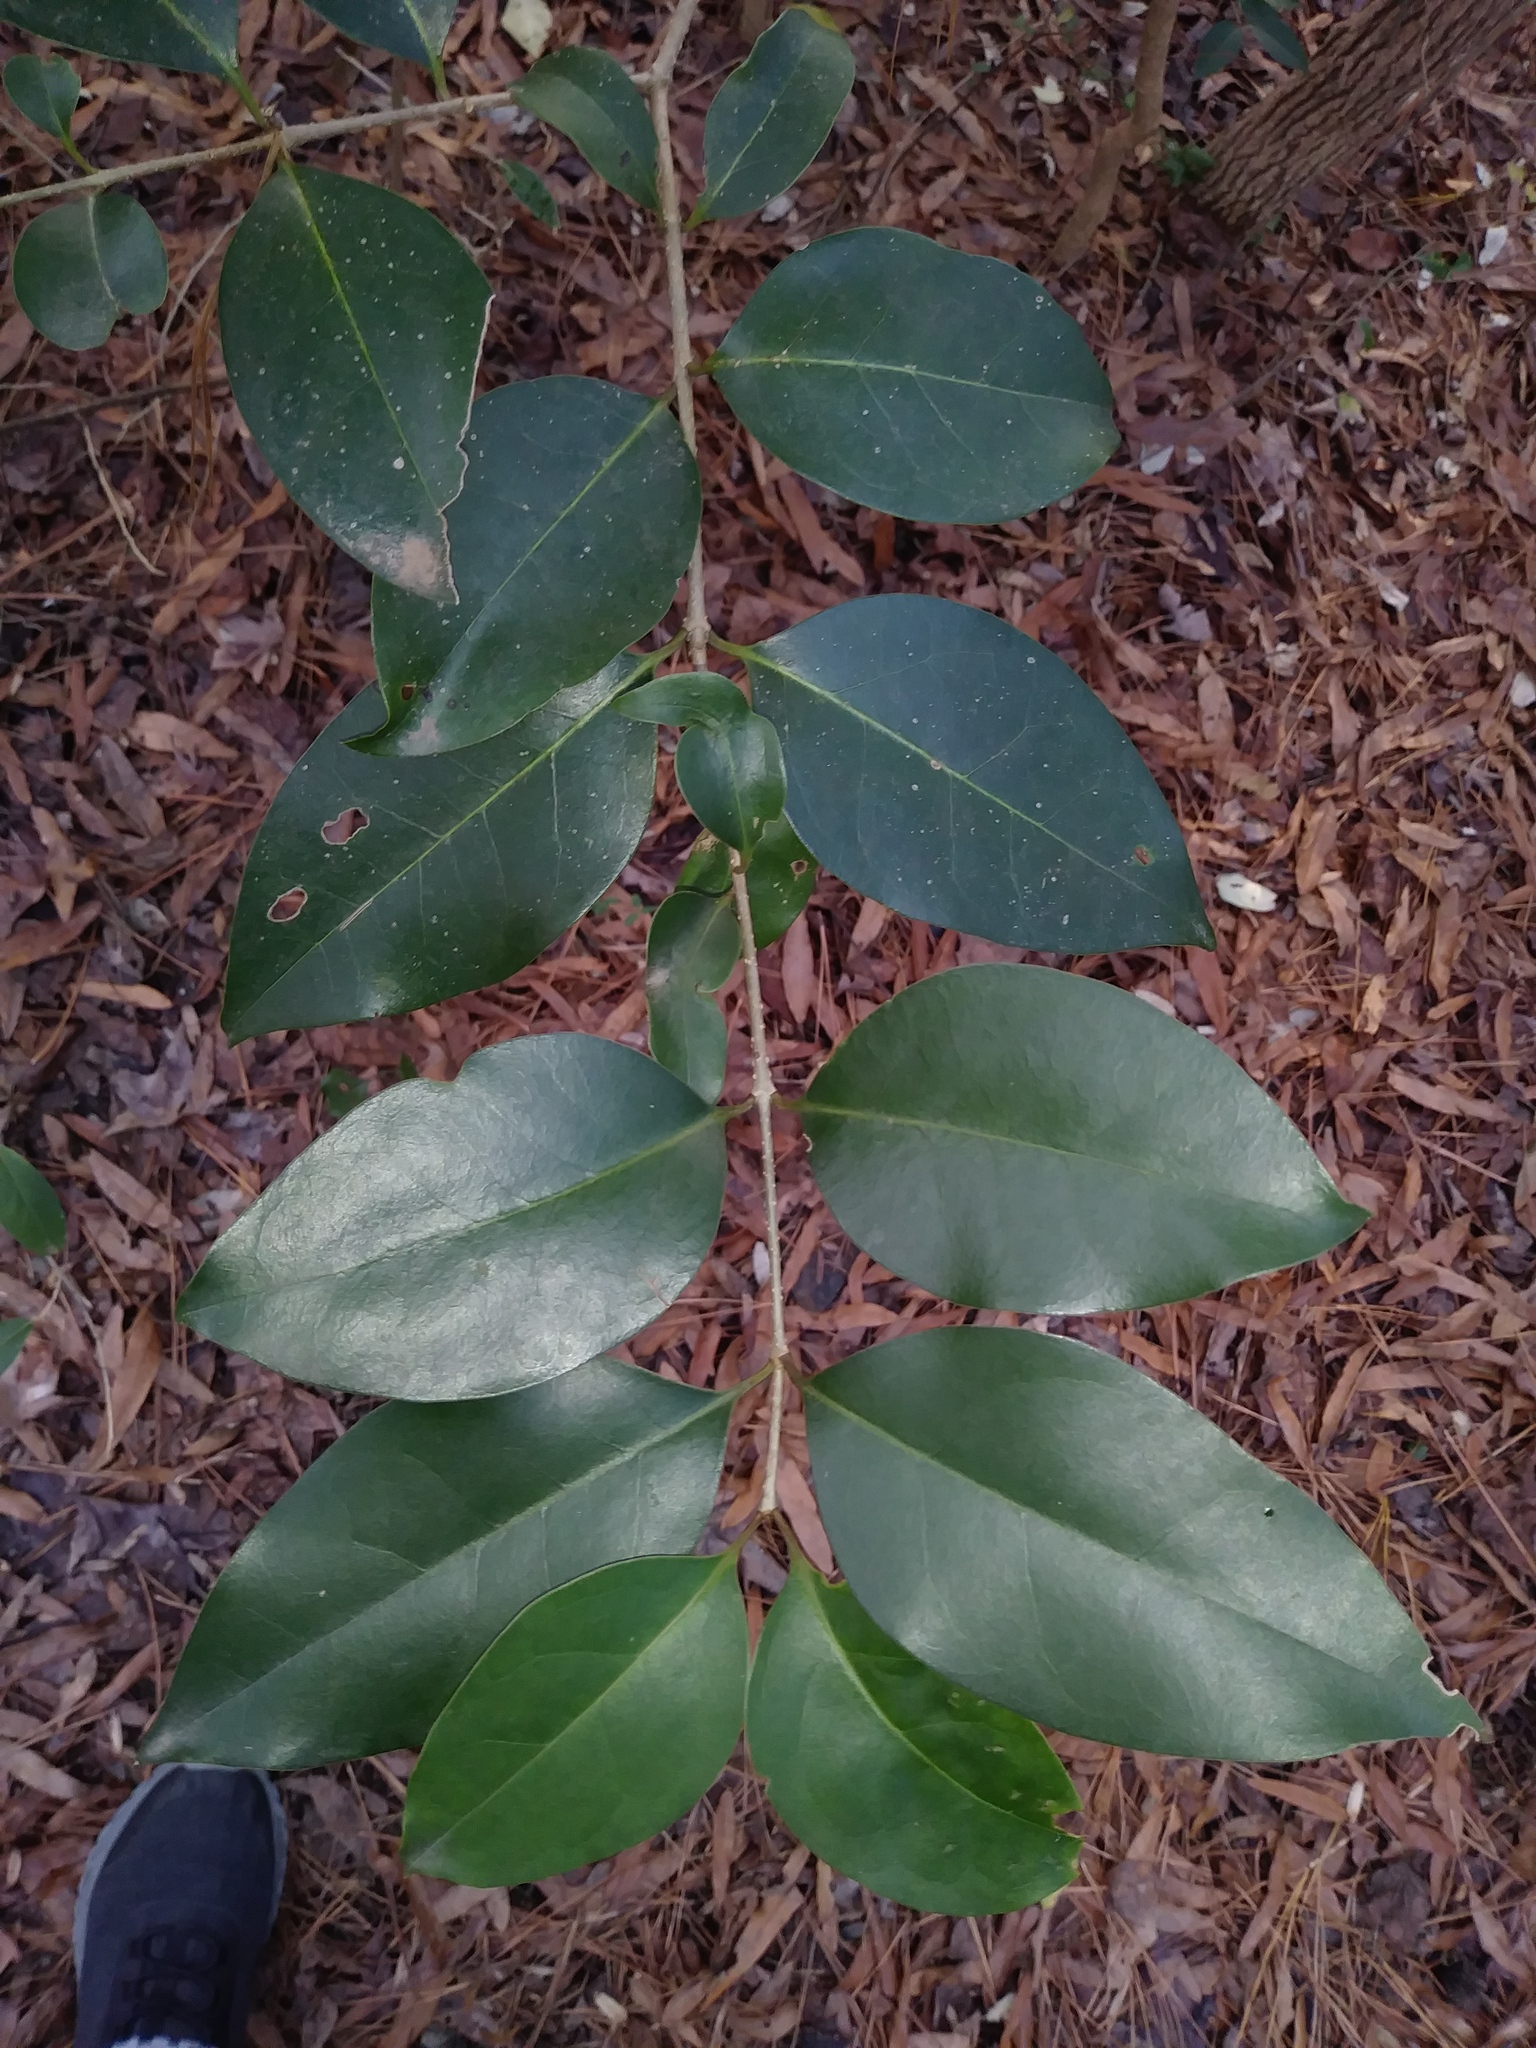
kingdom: Plantae
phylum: Tracheophyta
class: Magnoliopsida
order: Lamiales
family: Oleaceae
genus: Ligustrum
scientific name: Ligustrum lucidum
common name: Glossy privet
